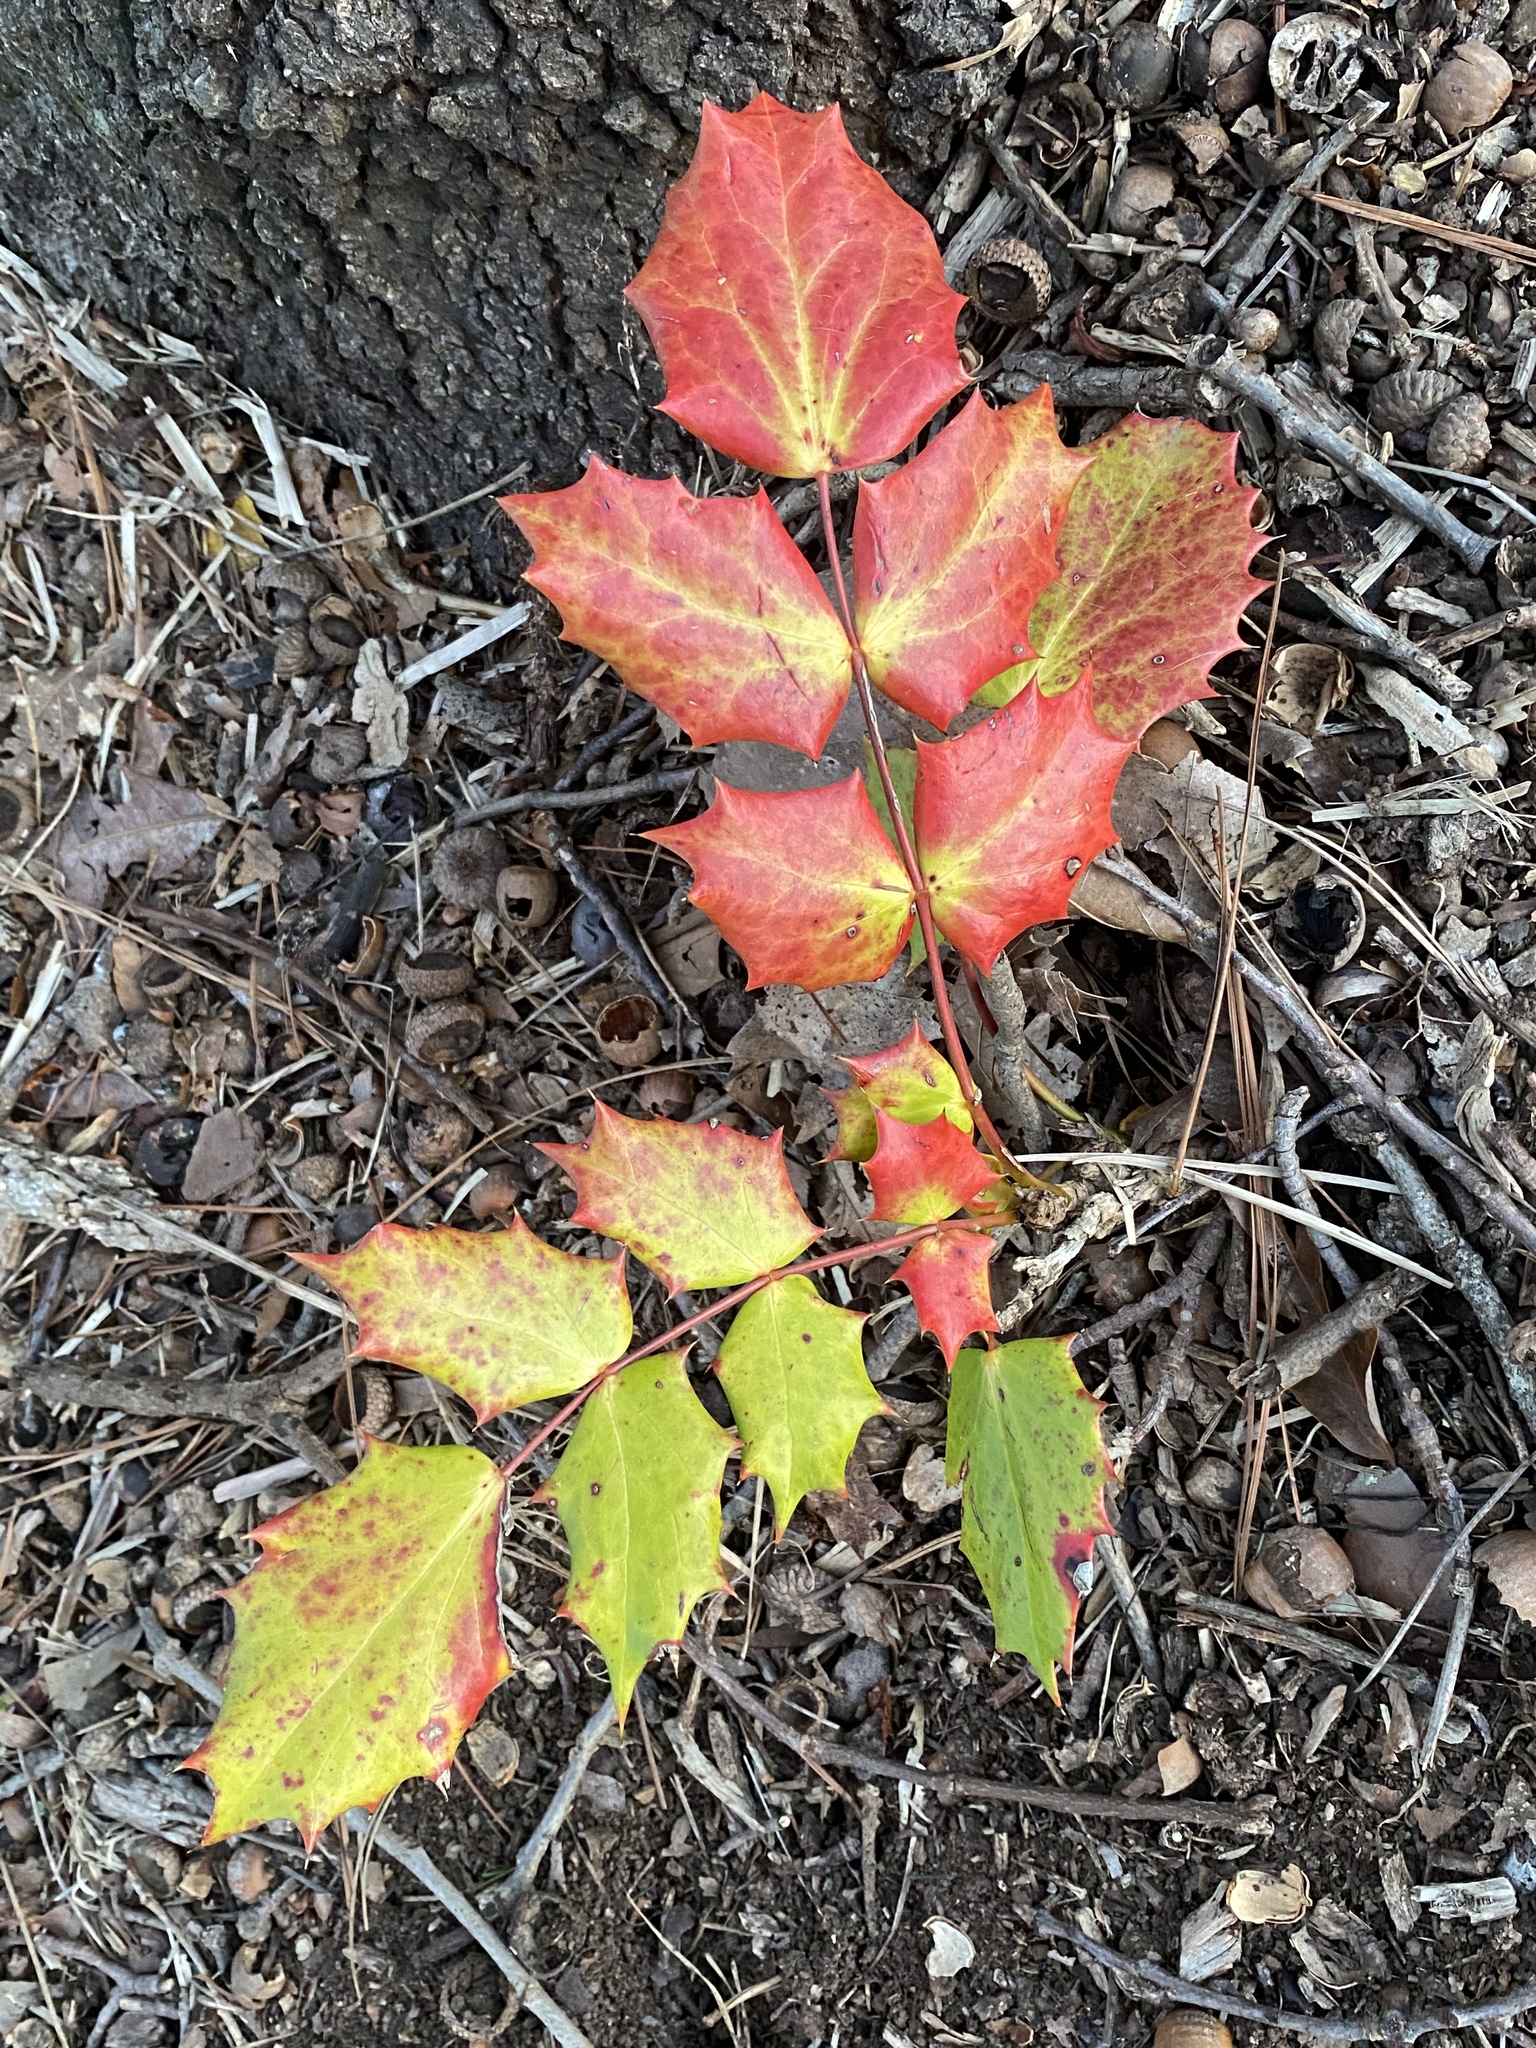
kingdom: Plantae
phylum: Tracheophyta
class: Magnoliopsida
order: Ranunculales
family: Berberidaceae
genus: Mahonia
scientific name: Mahonia bealei
